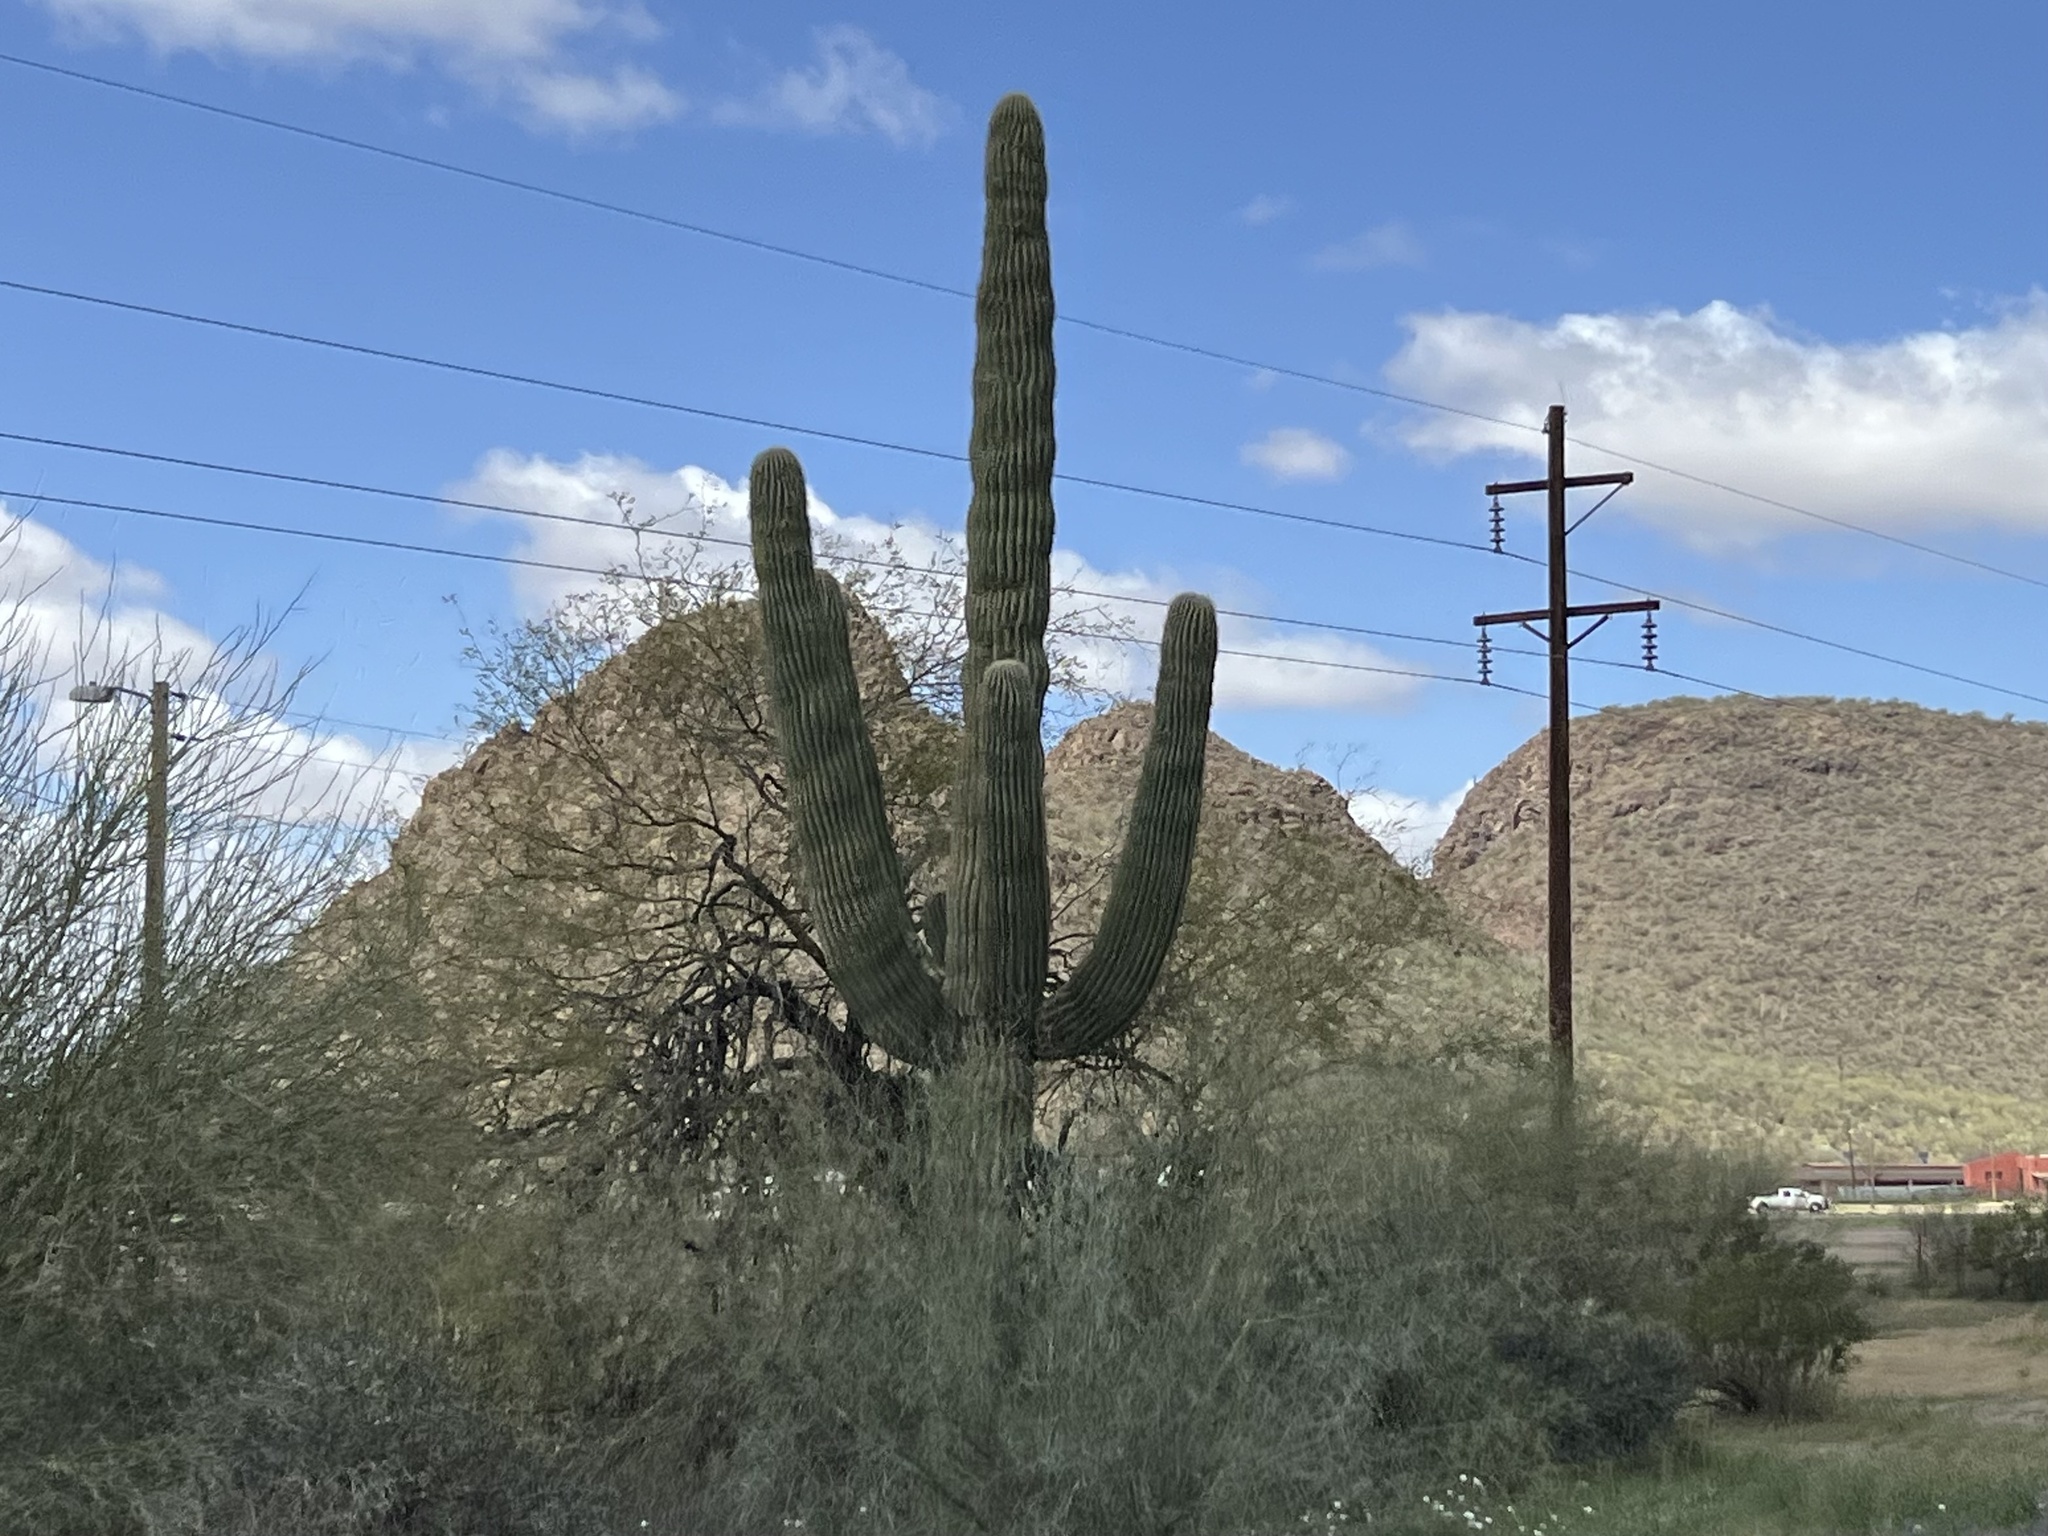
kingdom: Plantae
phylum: Tracheophyta
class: Magnoliopsida
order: Caryophyllales
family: Cactaceae
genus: Carnegiea
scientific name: Carnegiea gigantea
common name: Saguaro
